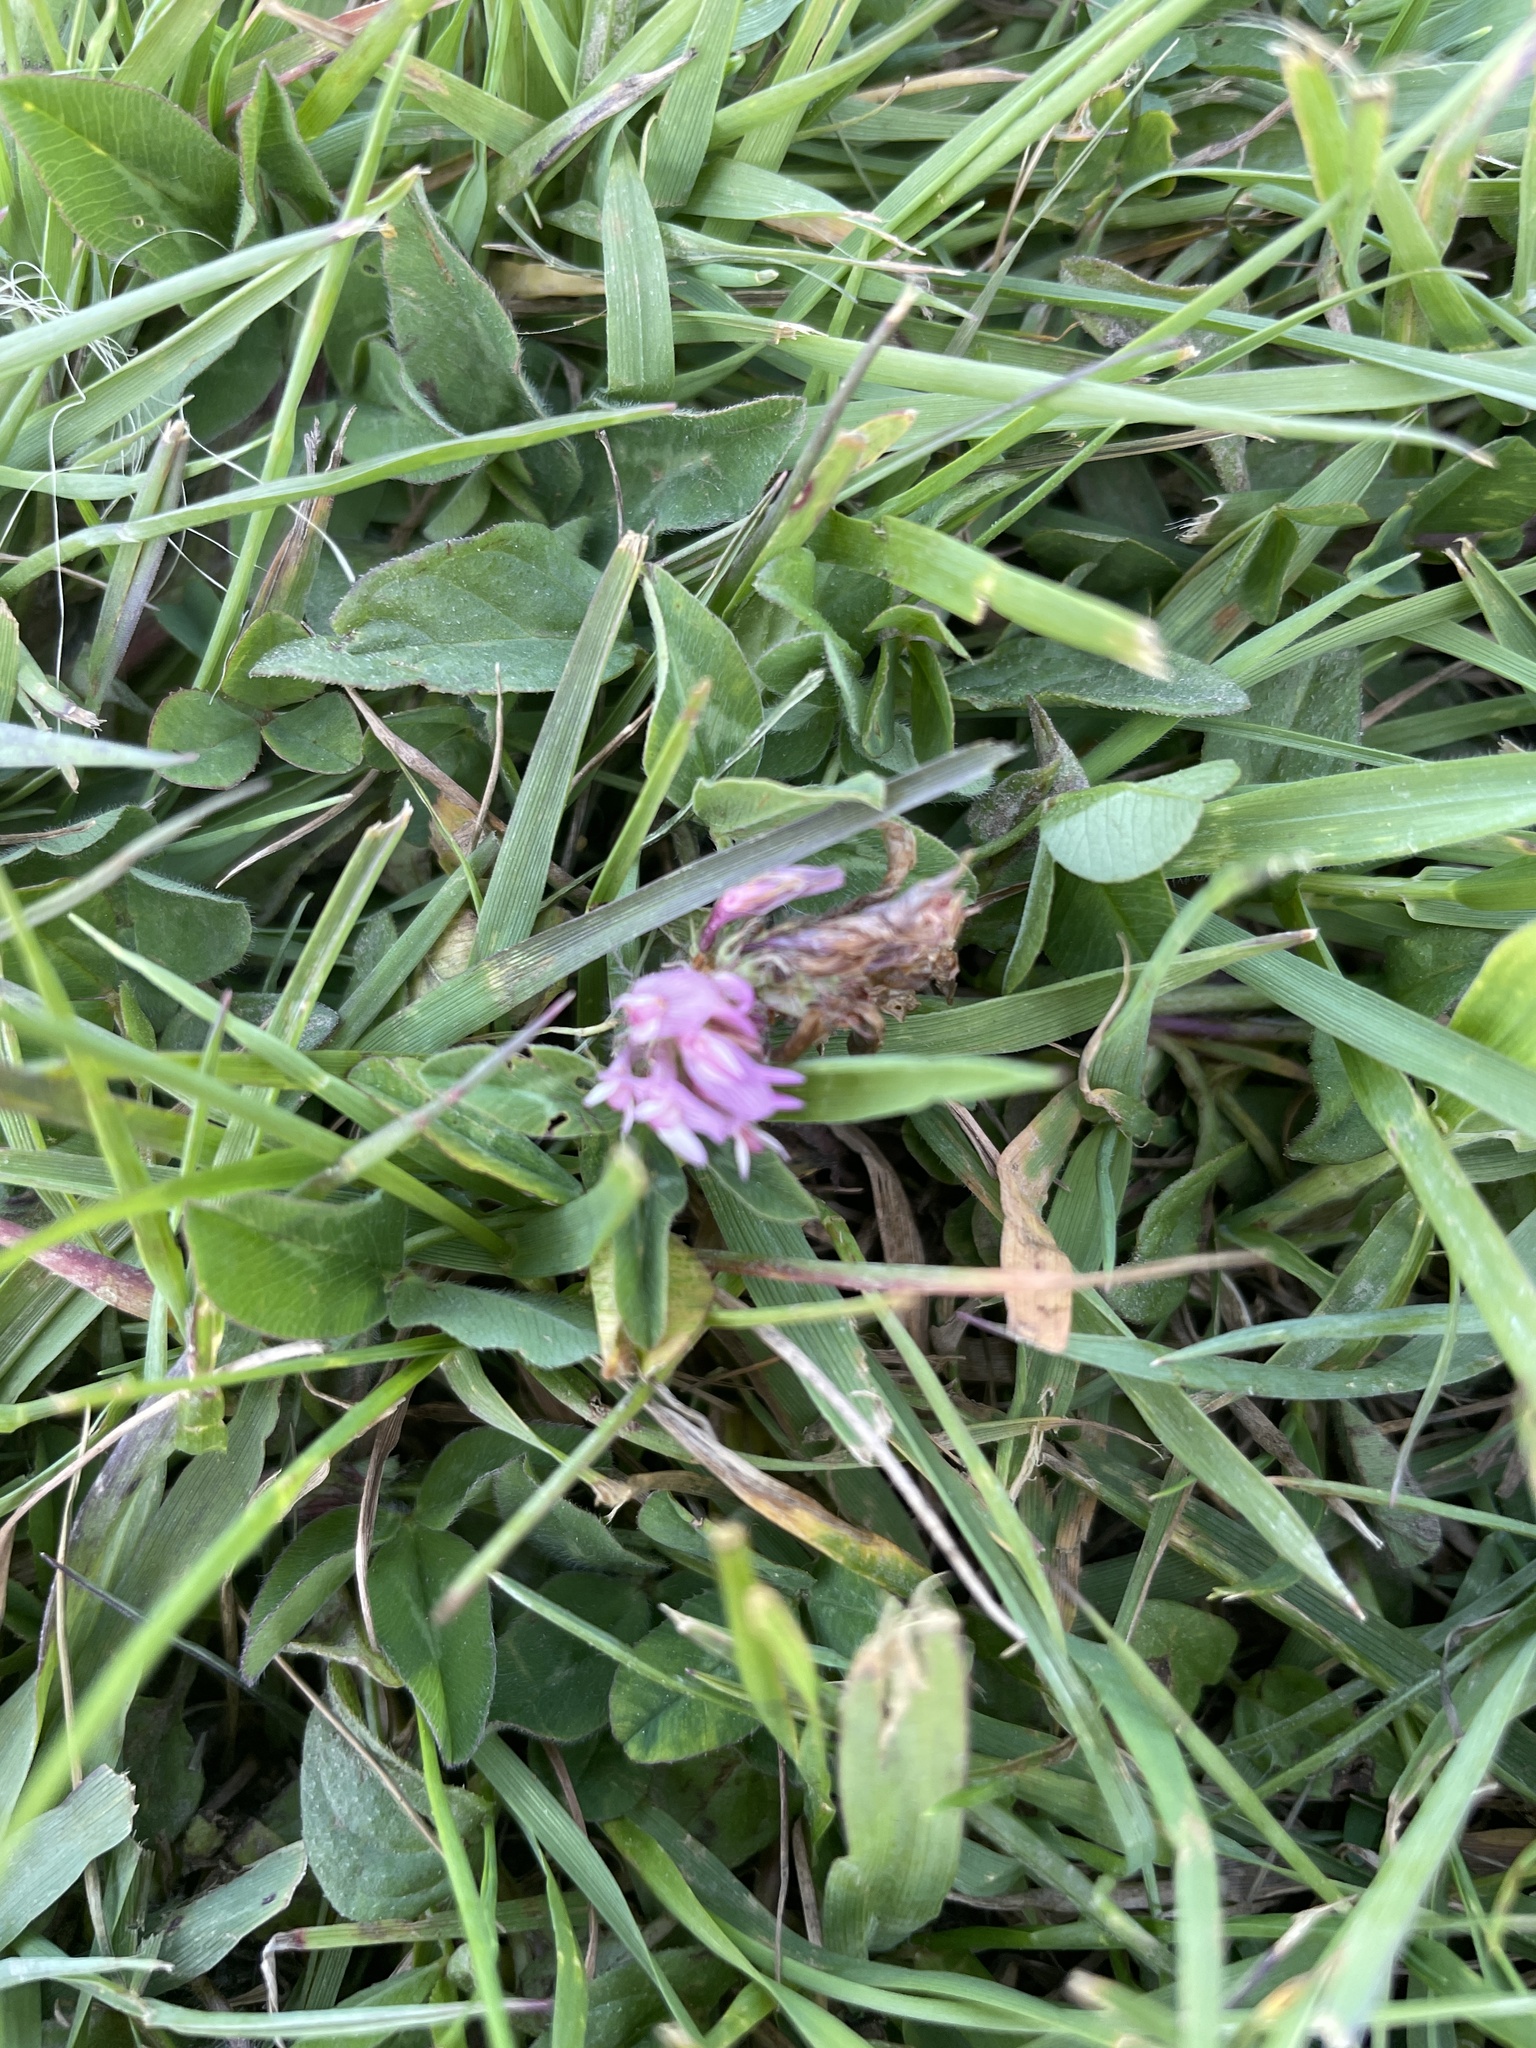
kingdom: Plantae
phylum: Tracheophyta
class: Magnoliopsida
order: Fabales
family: Fabaceae
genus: Trifolium
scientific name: Trifolium pratense
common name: Red clover
